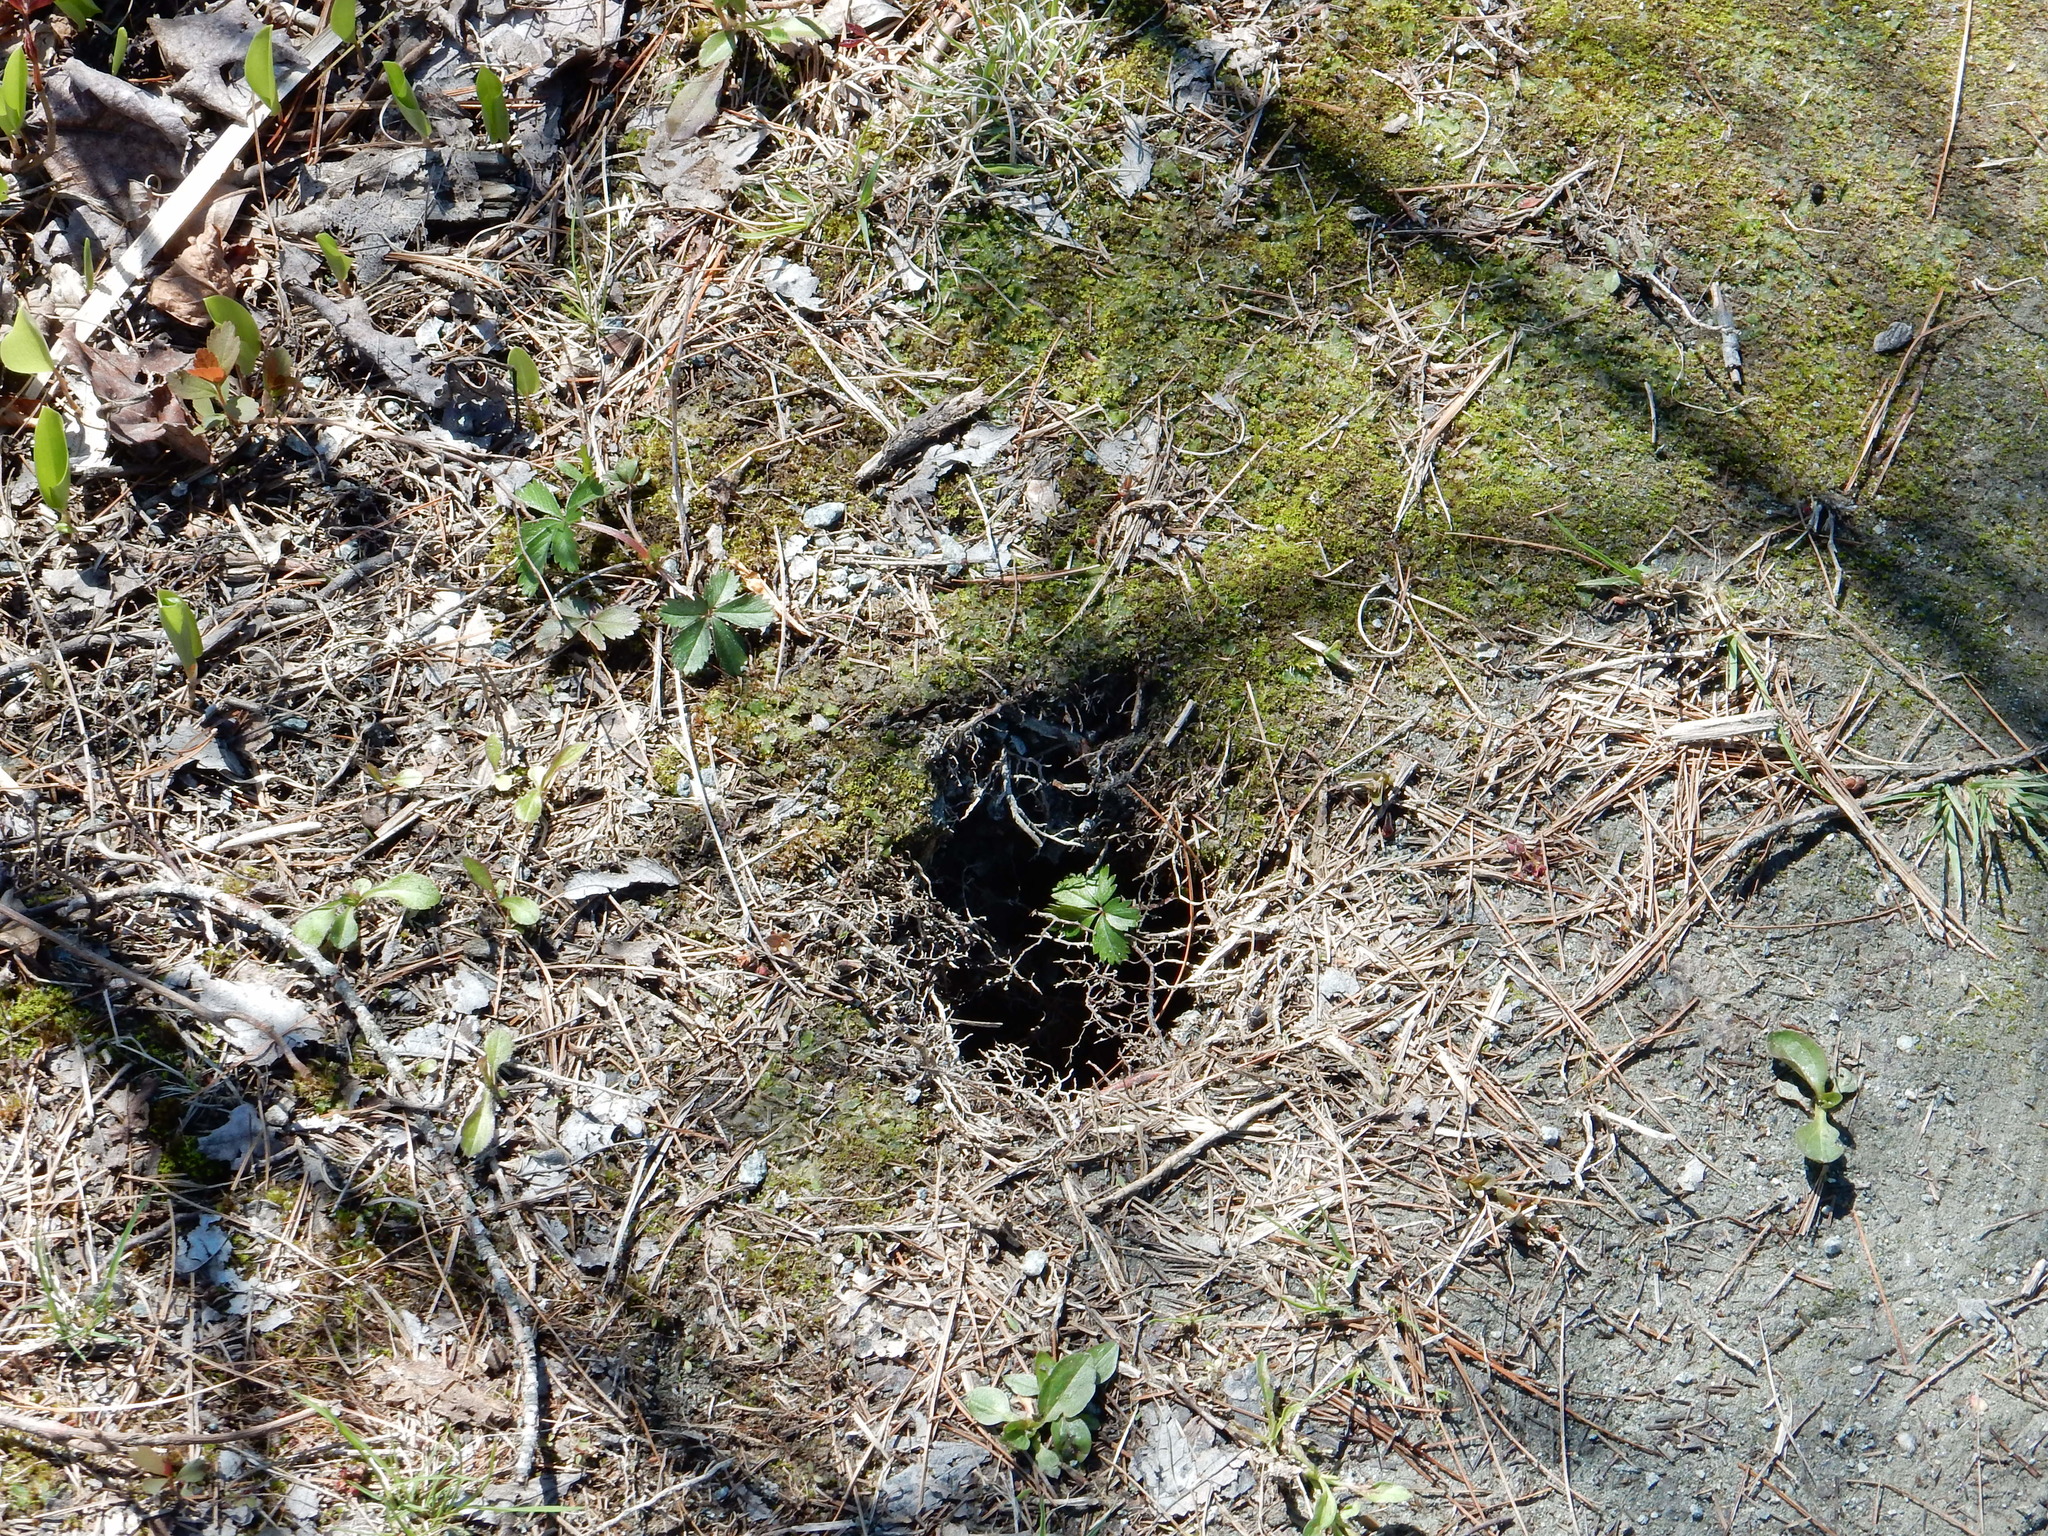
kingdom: Animalia
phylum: Chordata
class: Mammalia
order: Rodentia
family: Sciuridae
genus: Tamias
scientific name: Tamias striatus
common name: Eastern chipmunk
